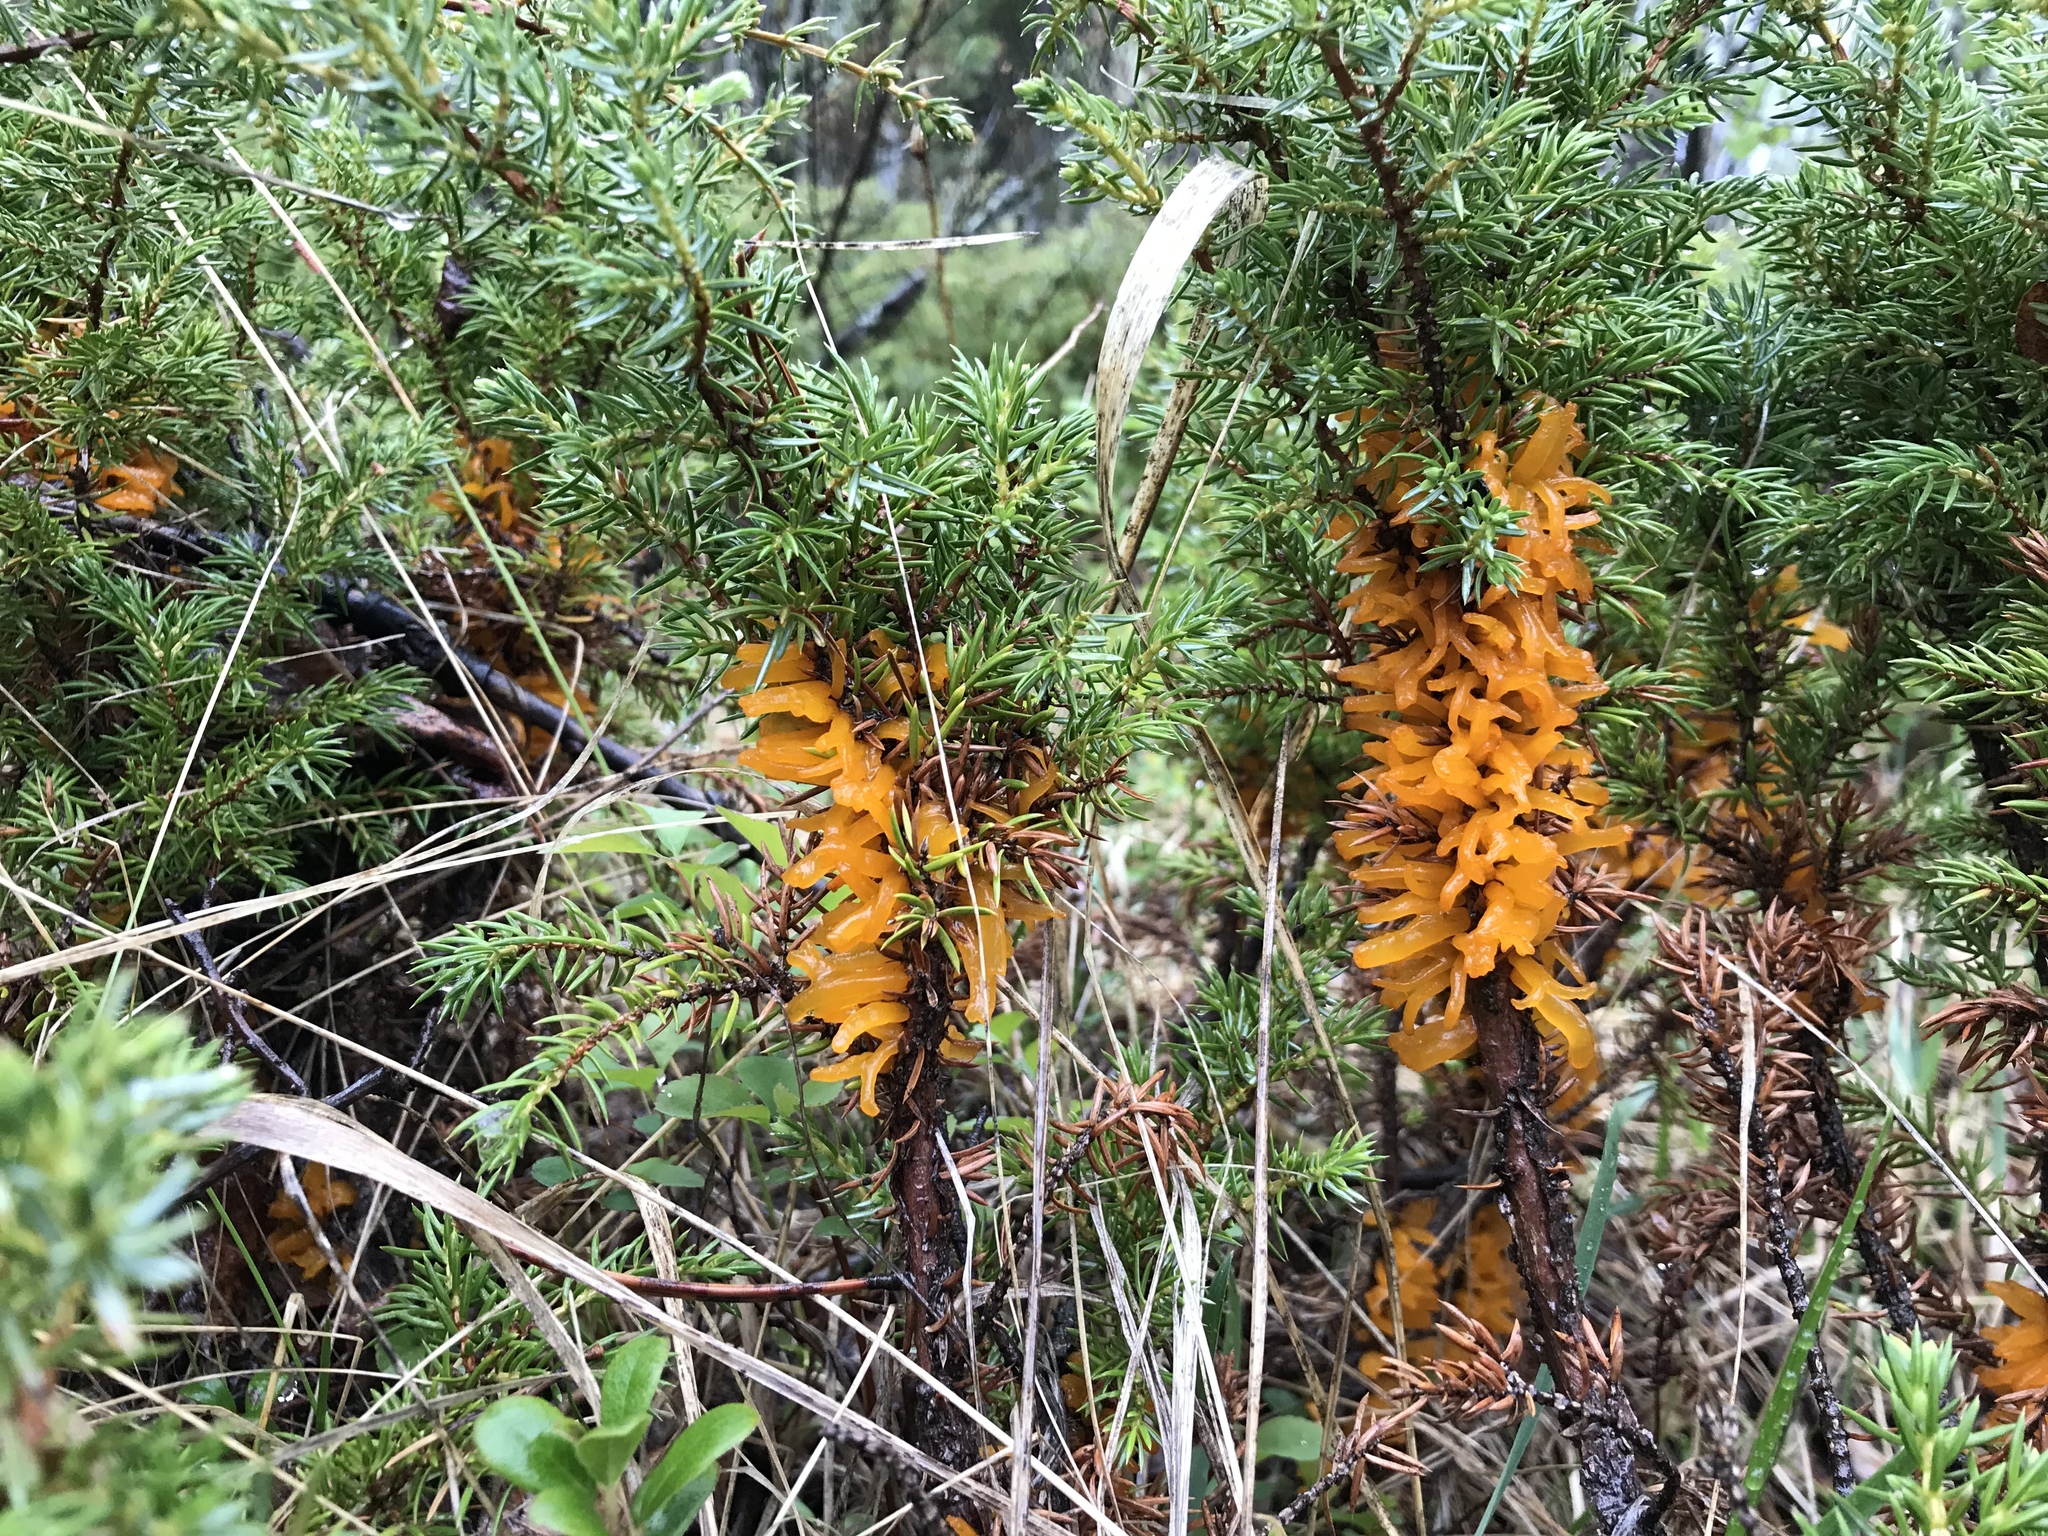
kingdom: Fungi
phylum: Basidiomycota
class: Pucciniomycetes
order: Pucciniales
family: Gymnosporangiaceae
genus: Gymnosporangium
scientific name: Gymnosporangium juniperi-virginianae
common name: Juniper-apple rust
